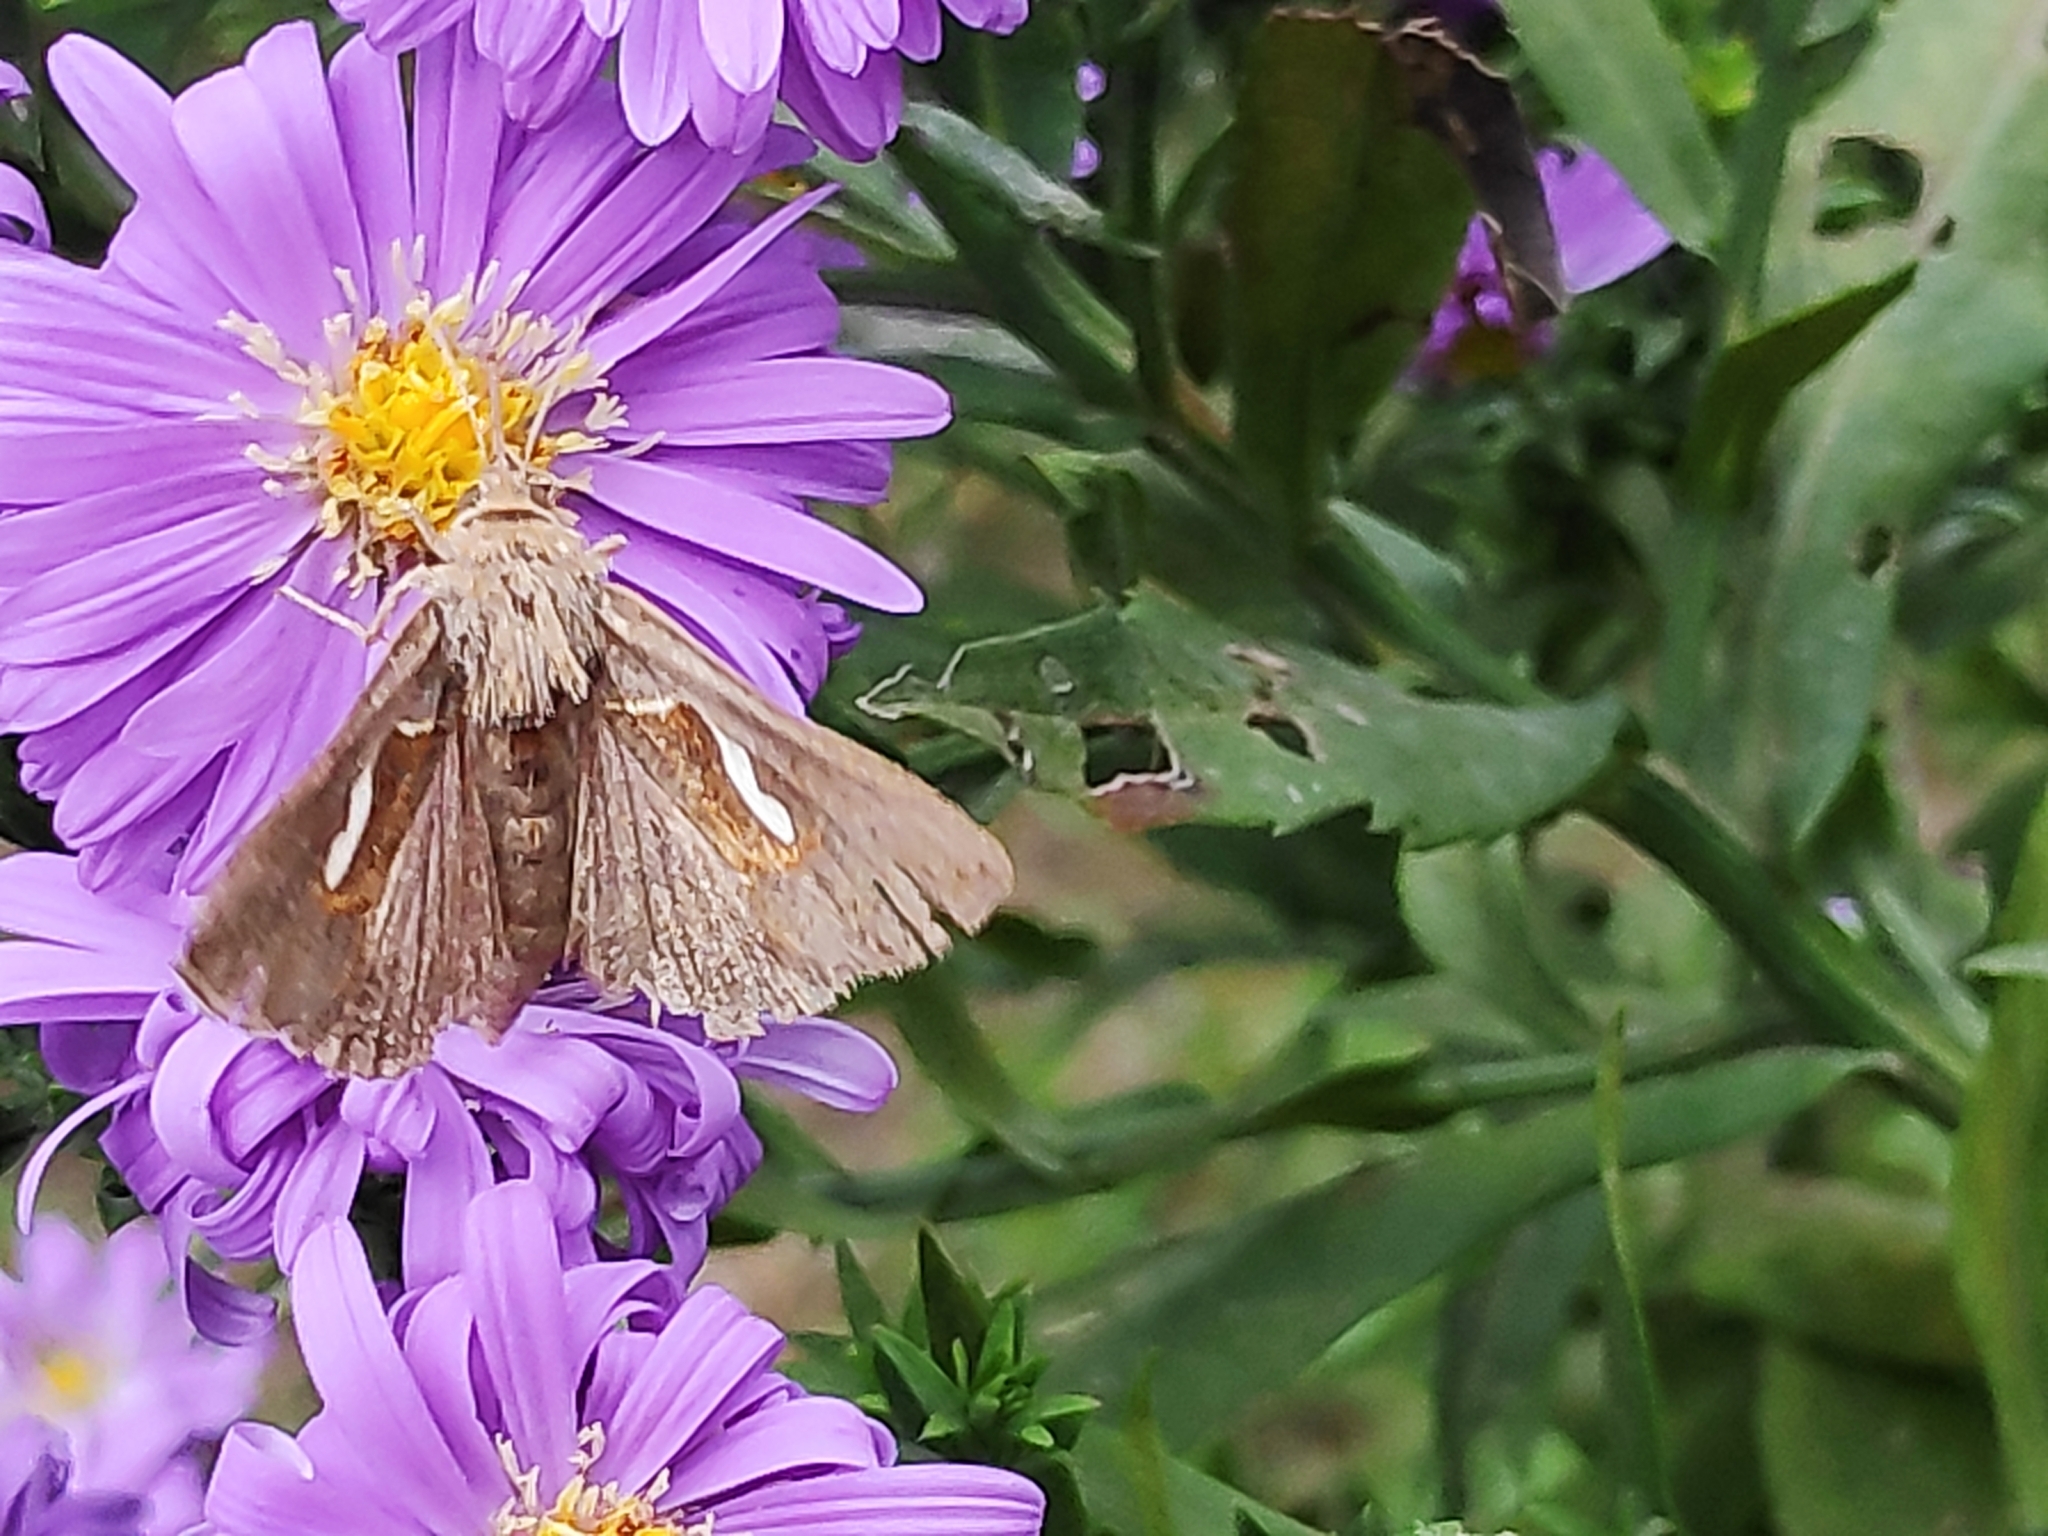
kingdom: Animalia
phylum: Arthropoda
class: Insecta
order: Lepidoptera
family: Noctuidae
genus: Macdunnoughia
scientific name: Macdunnoughia confusa
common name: Dewick's plusia
